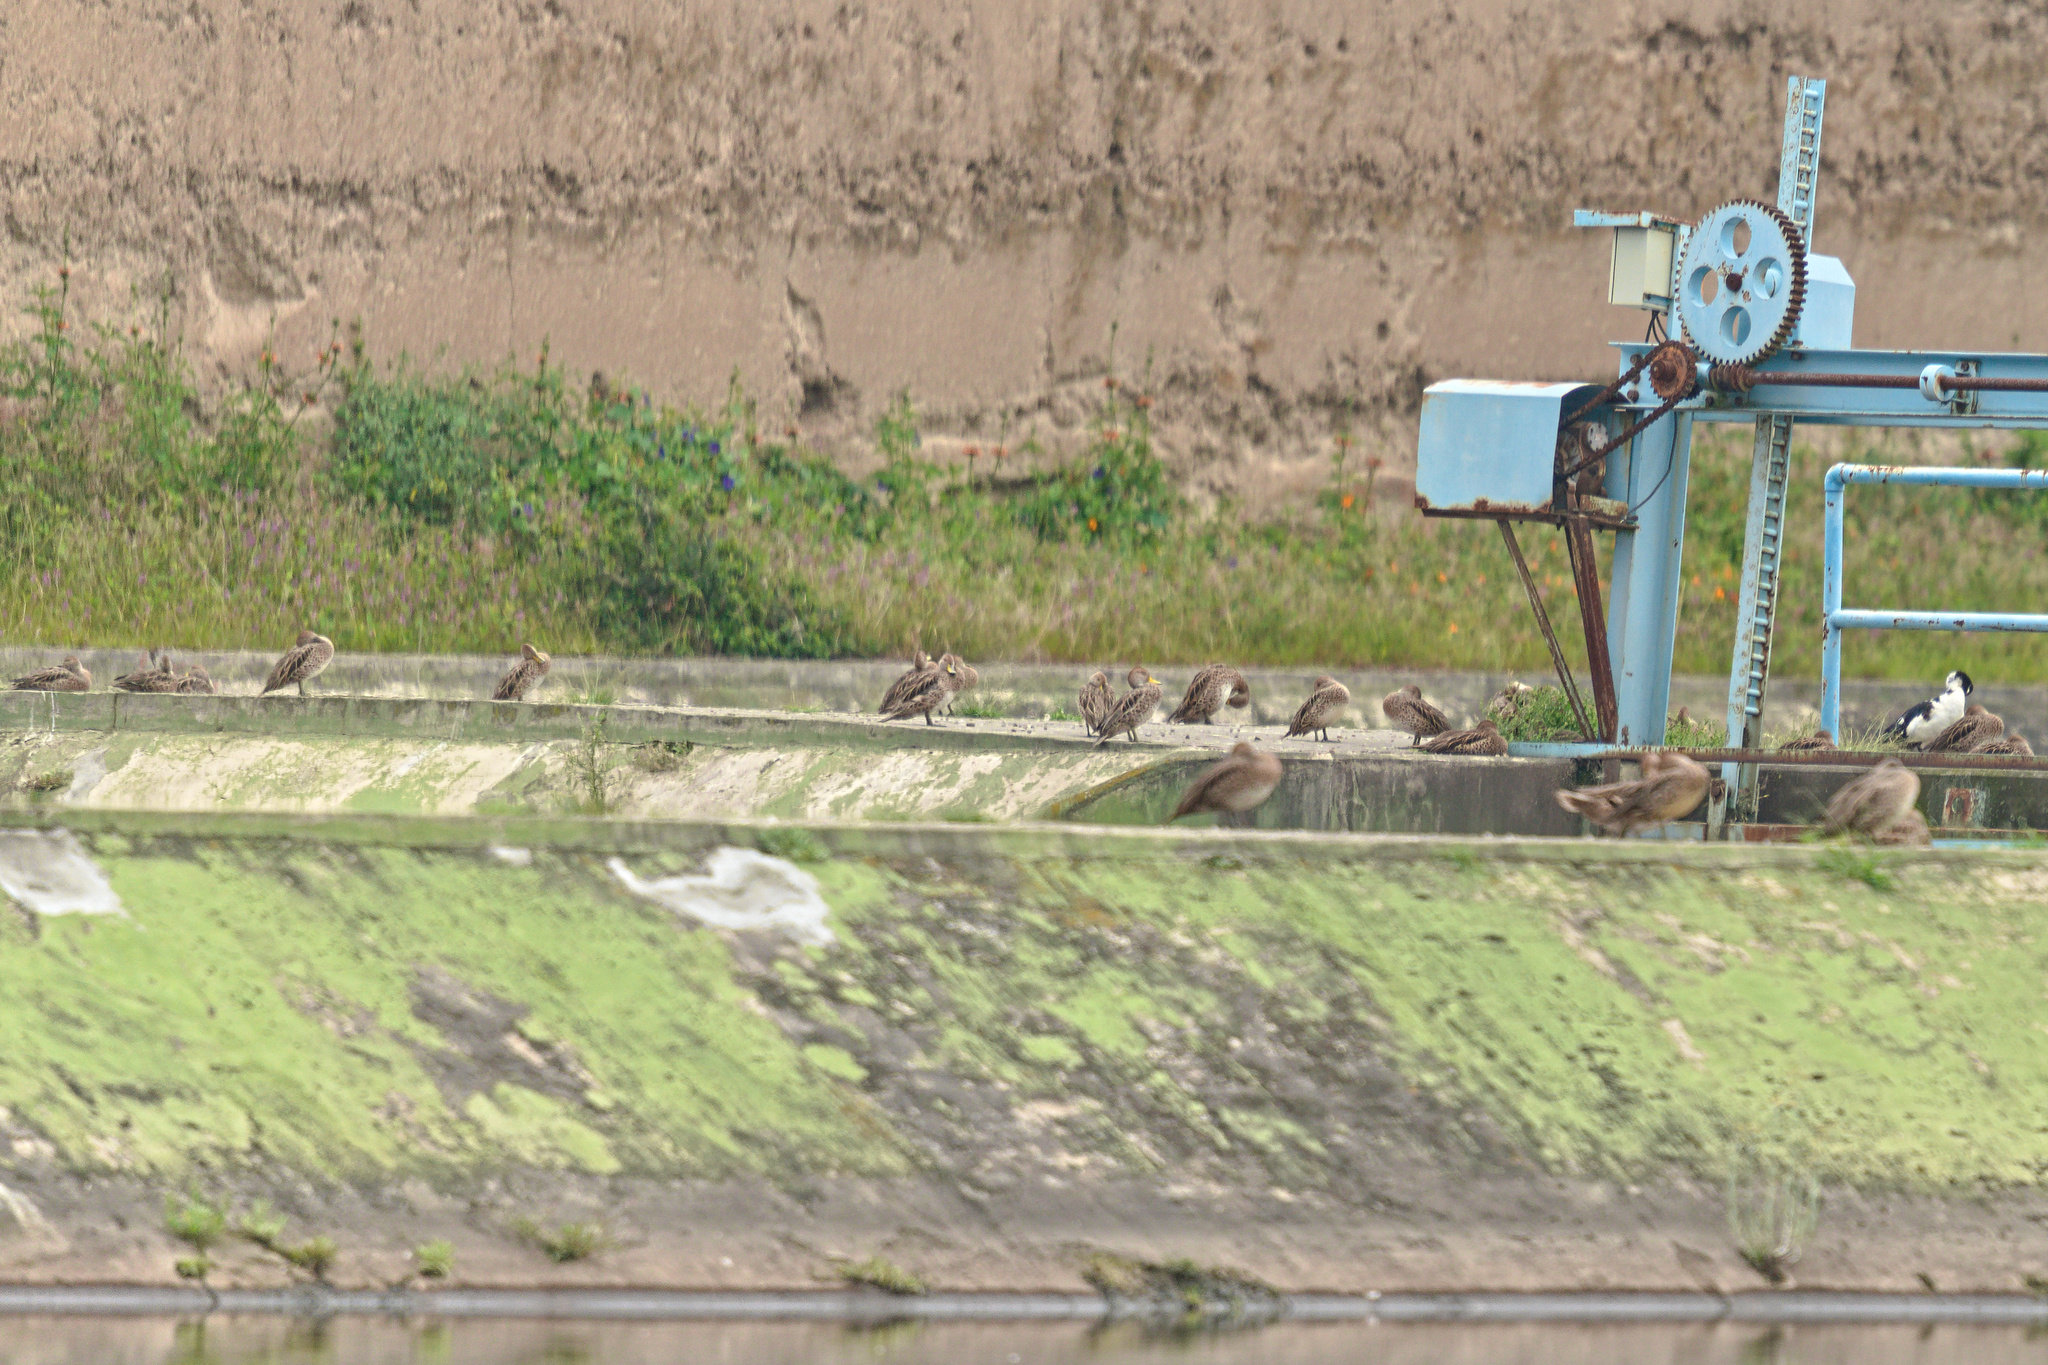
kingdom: Animalia
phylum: Chordata
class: Aves
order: Anseriformes
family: Anatidae
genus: Anas
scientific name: Anas georgica
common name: Yellow-billed pintail
